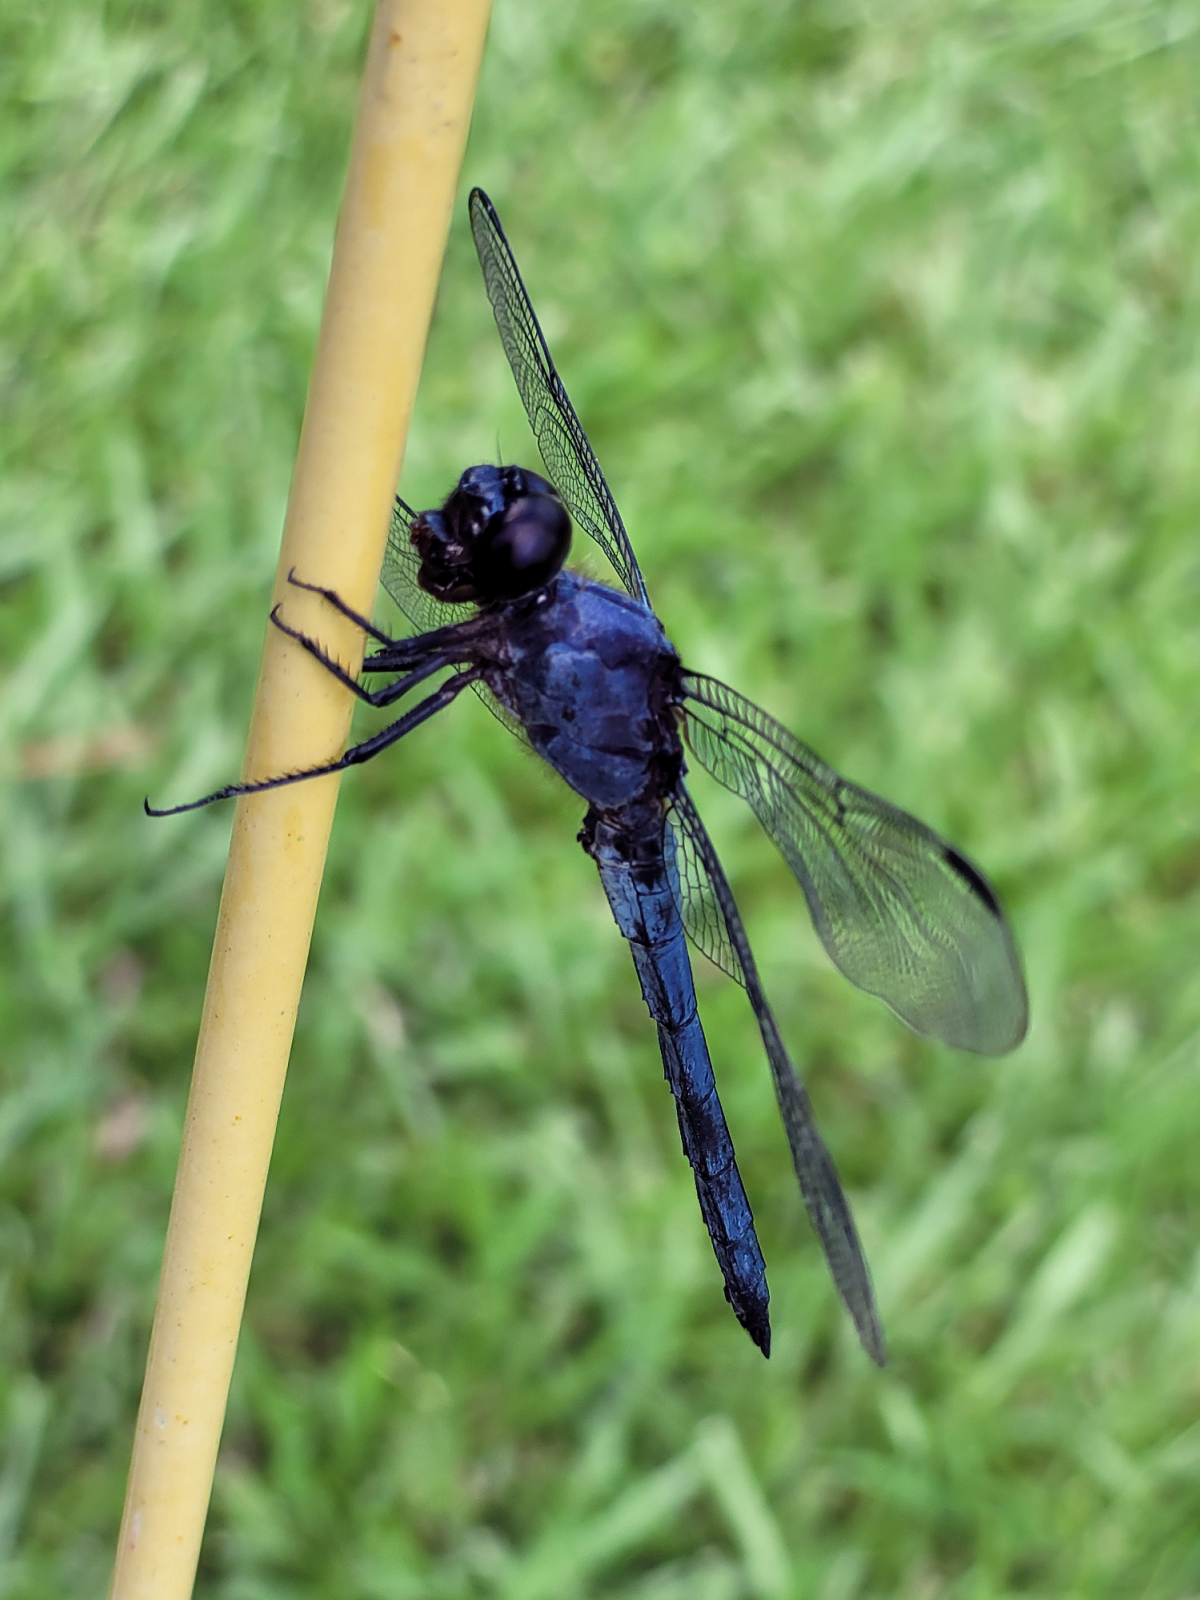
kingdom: Animalia
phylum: Arthropoda
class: Insecta
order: Odonata
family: Libellulidae
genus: Libellula
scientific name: Libellula incesta
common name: Slaty skimmer
